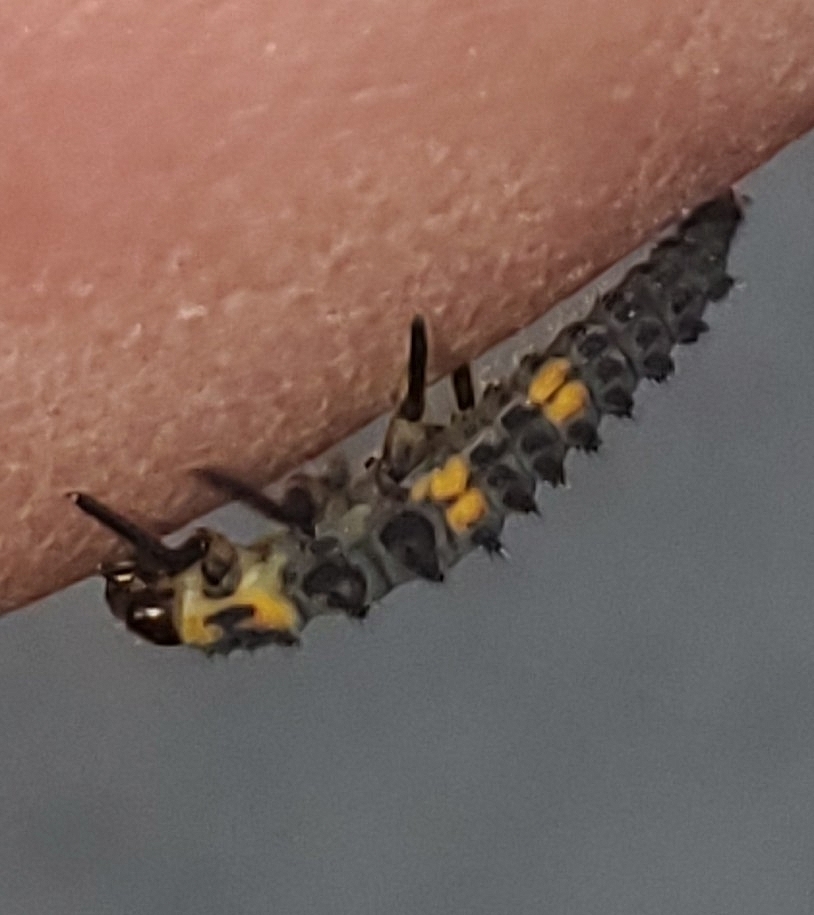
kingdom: Animalia
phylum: Arthropoda
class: Insecta
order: Coleoptera
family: Coccinellidae
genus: Coccinella
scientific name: Coccinella septempunctata
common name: Sevenspotted lady beetle
